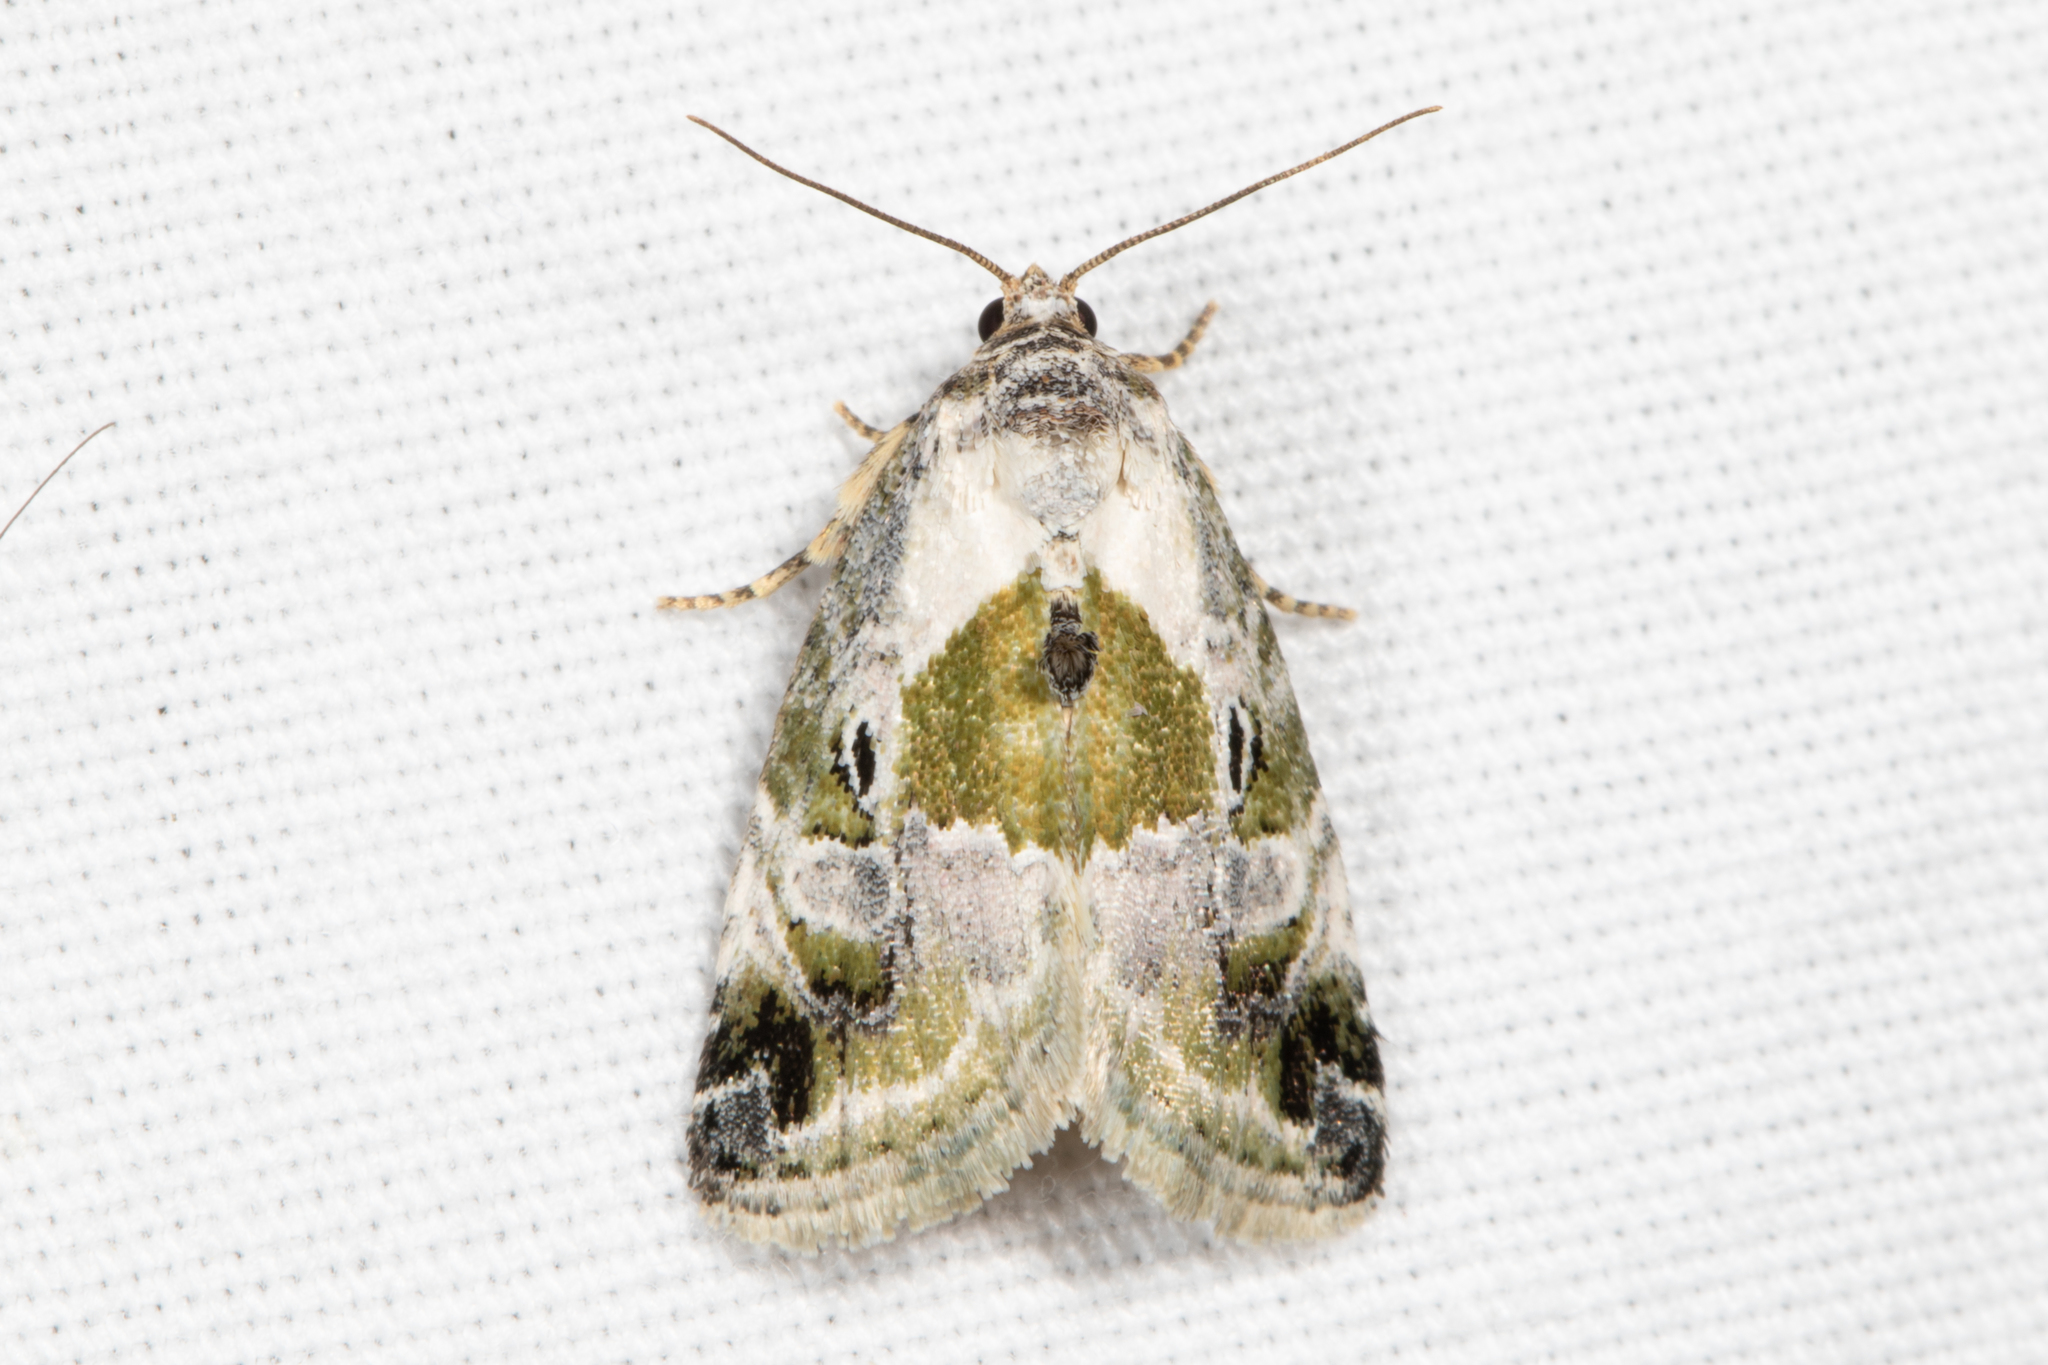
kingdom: Animalia
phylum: Arthropoda
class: Insecta
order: Lepidoptera
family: Noctuidae
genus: Maliattha
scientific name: Maliattha synochitis
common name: Black-dotted glyph
